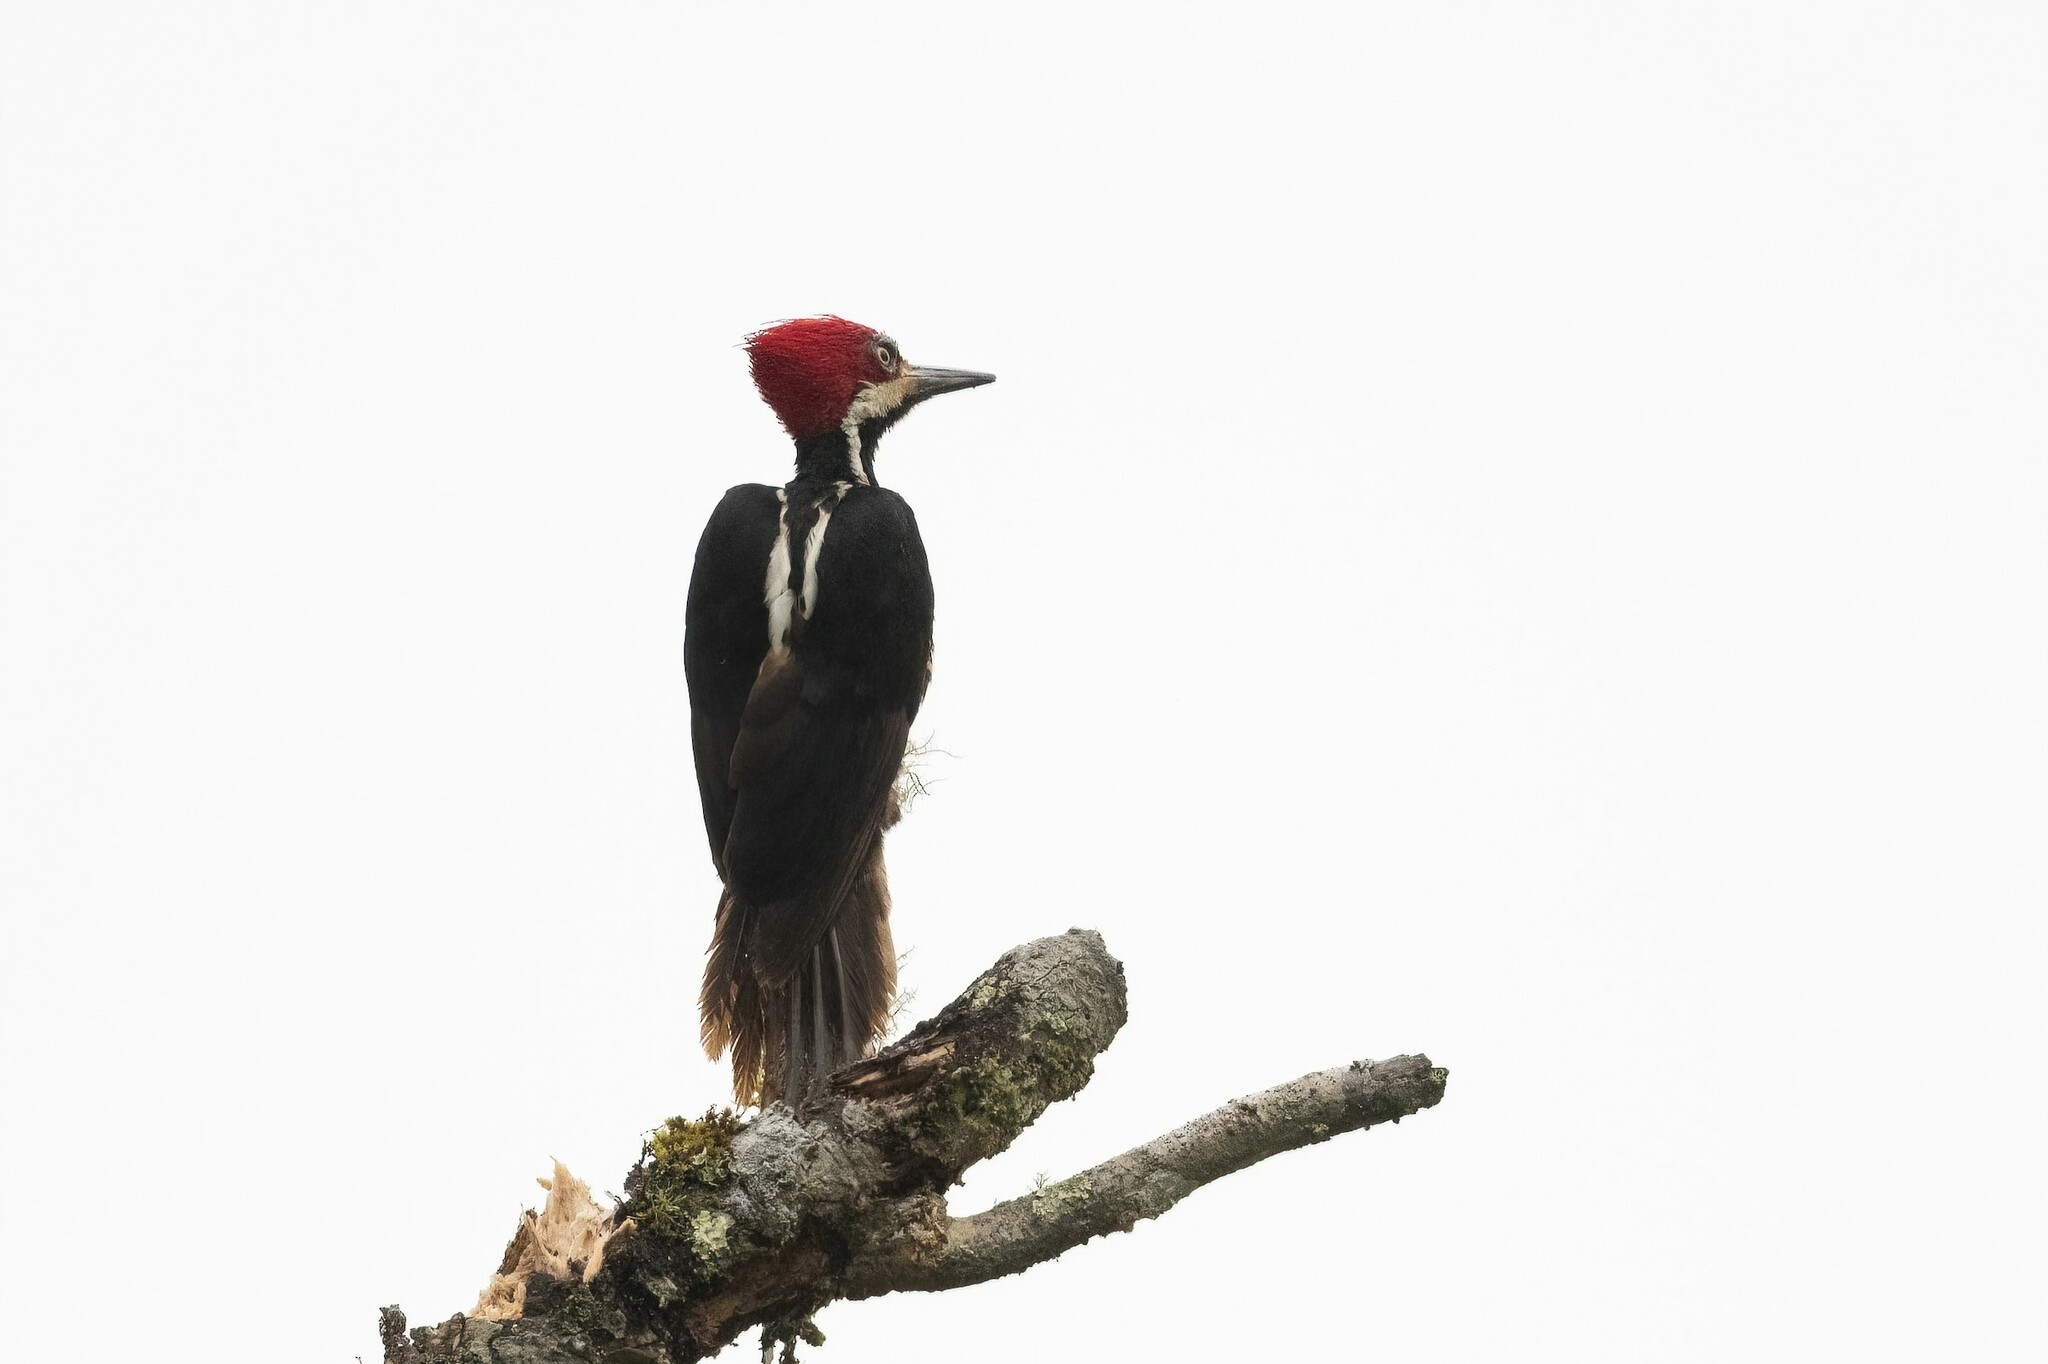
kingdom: Animalia
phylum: Chordata
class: Aves
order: Piciformes
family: Picidae
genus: Campephilus
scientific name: Campephilus gayaquilensis
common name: Guayaquil woodpecker
